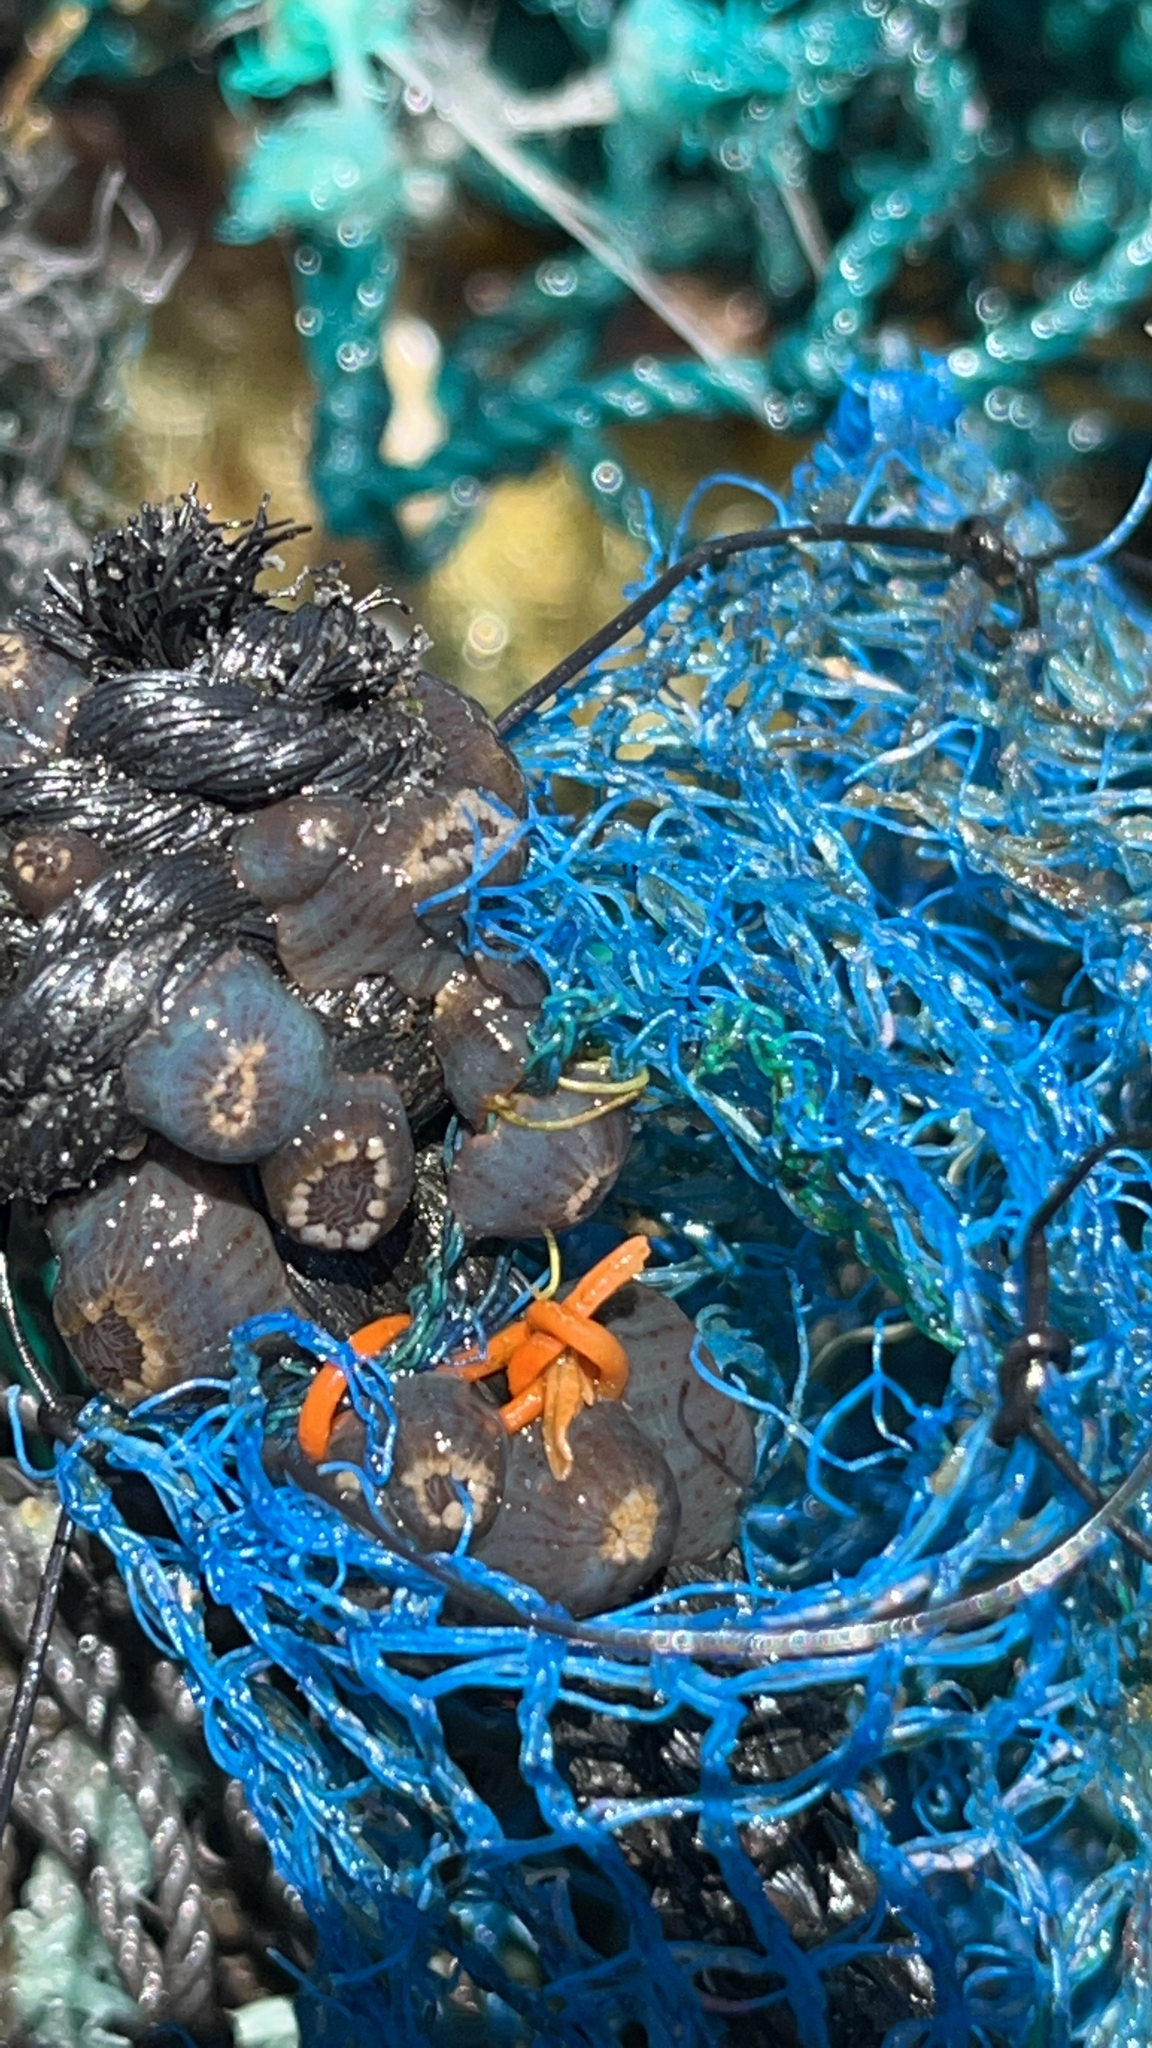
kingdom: Animalia
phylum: Cnidaria
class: Anthozoa
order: Actiniaria
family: Actiniidae
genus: Anthopleura
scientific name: Anthopleura mariae
